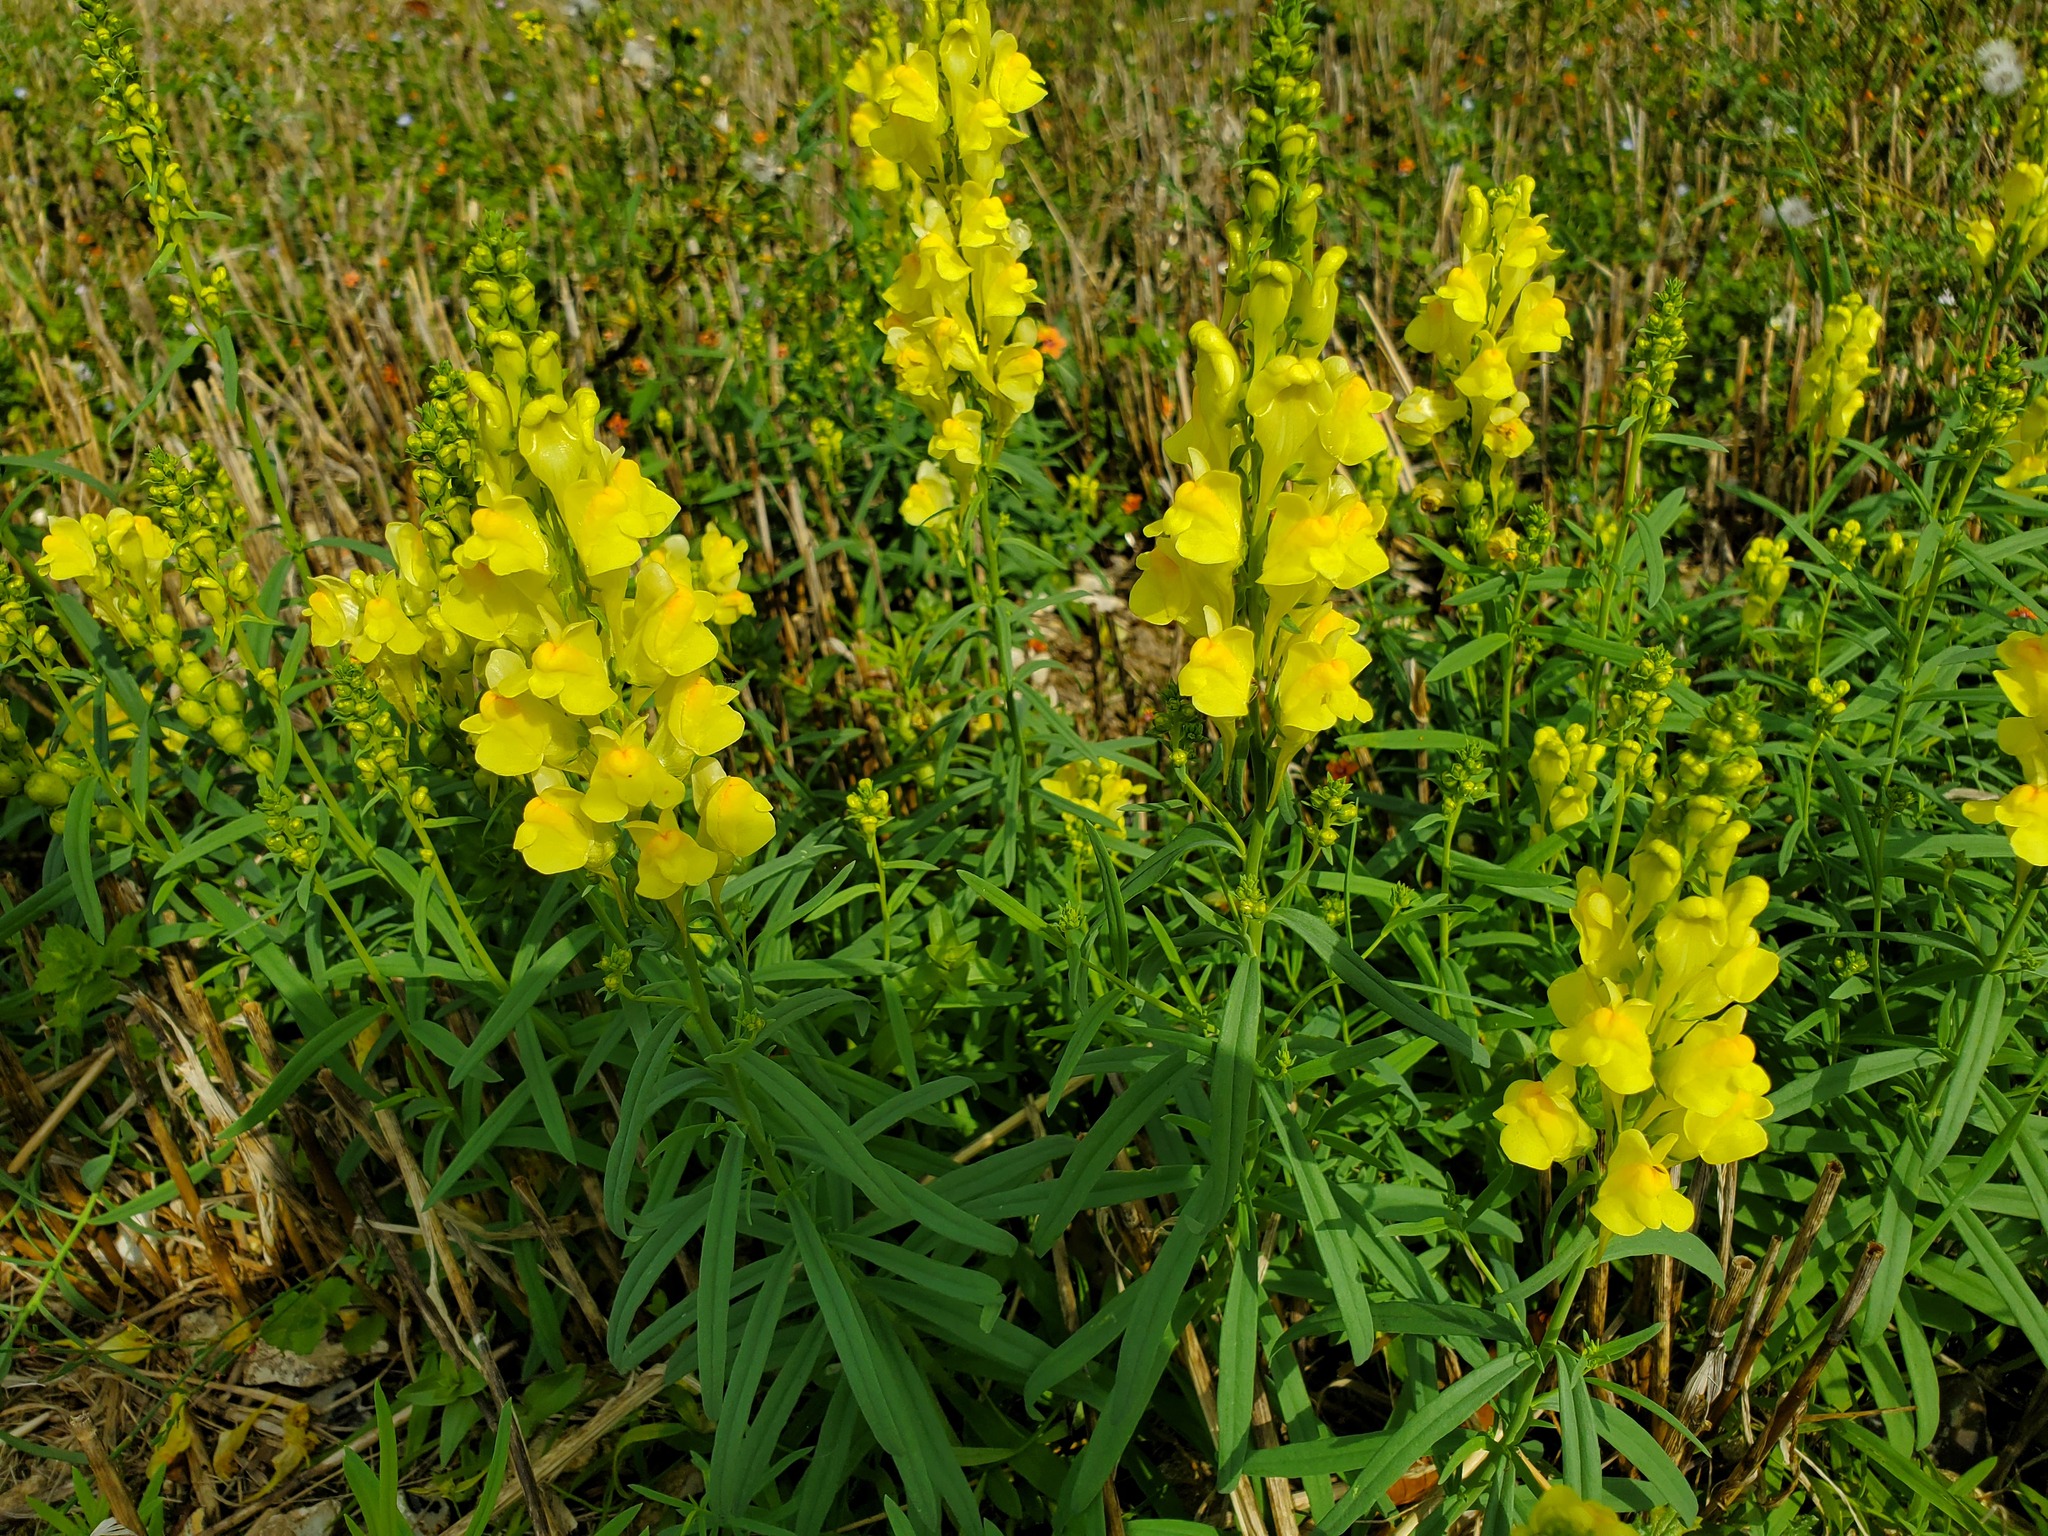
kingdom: Plantae
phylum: Tracheophyta
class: Magnoliopsida
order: Lamiales
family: Plantaginaceae
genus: Linaria
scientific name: Linaria vulgaris
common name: Butter and eggs
